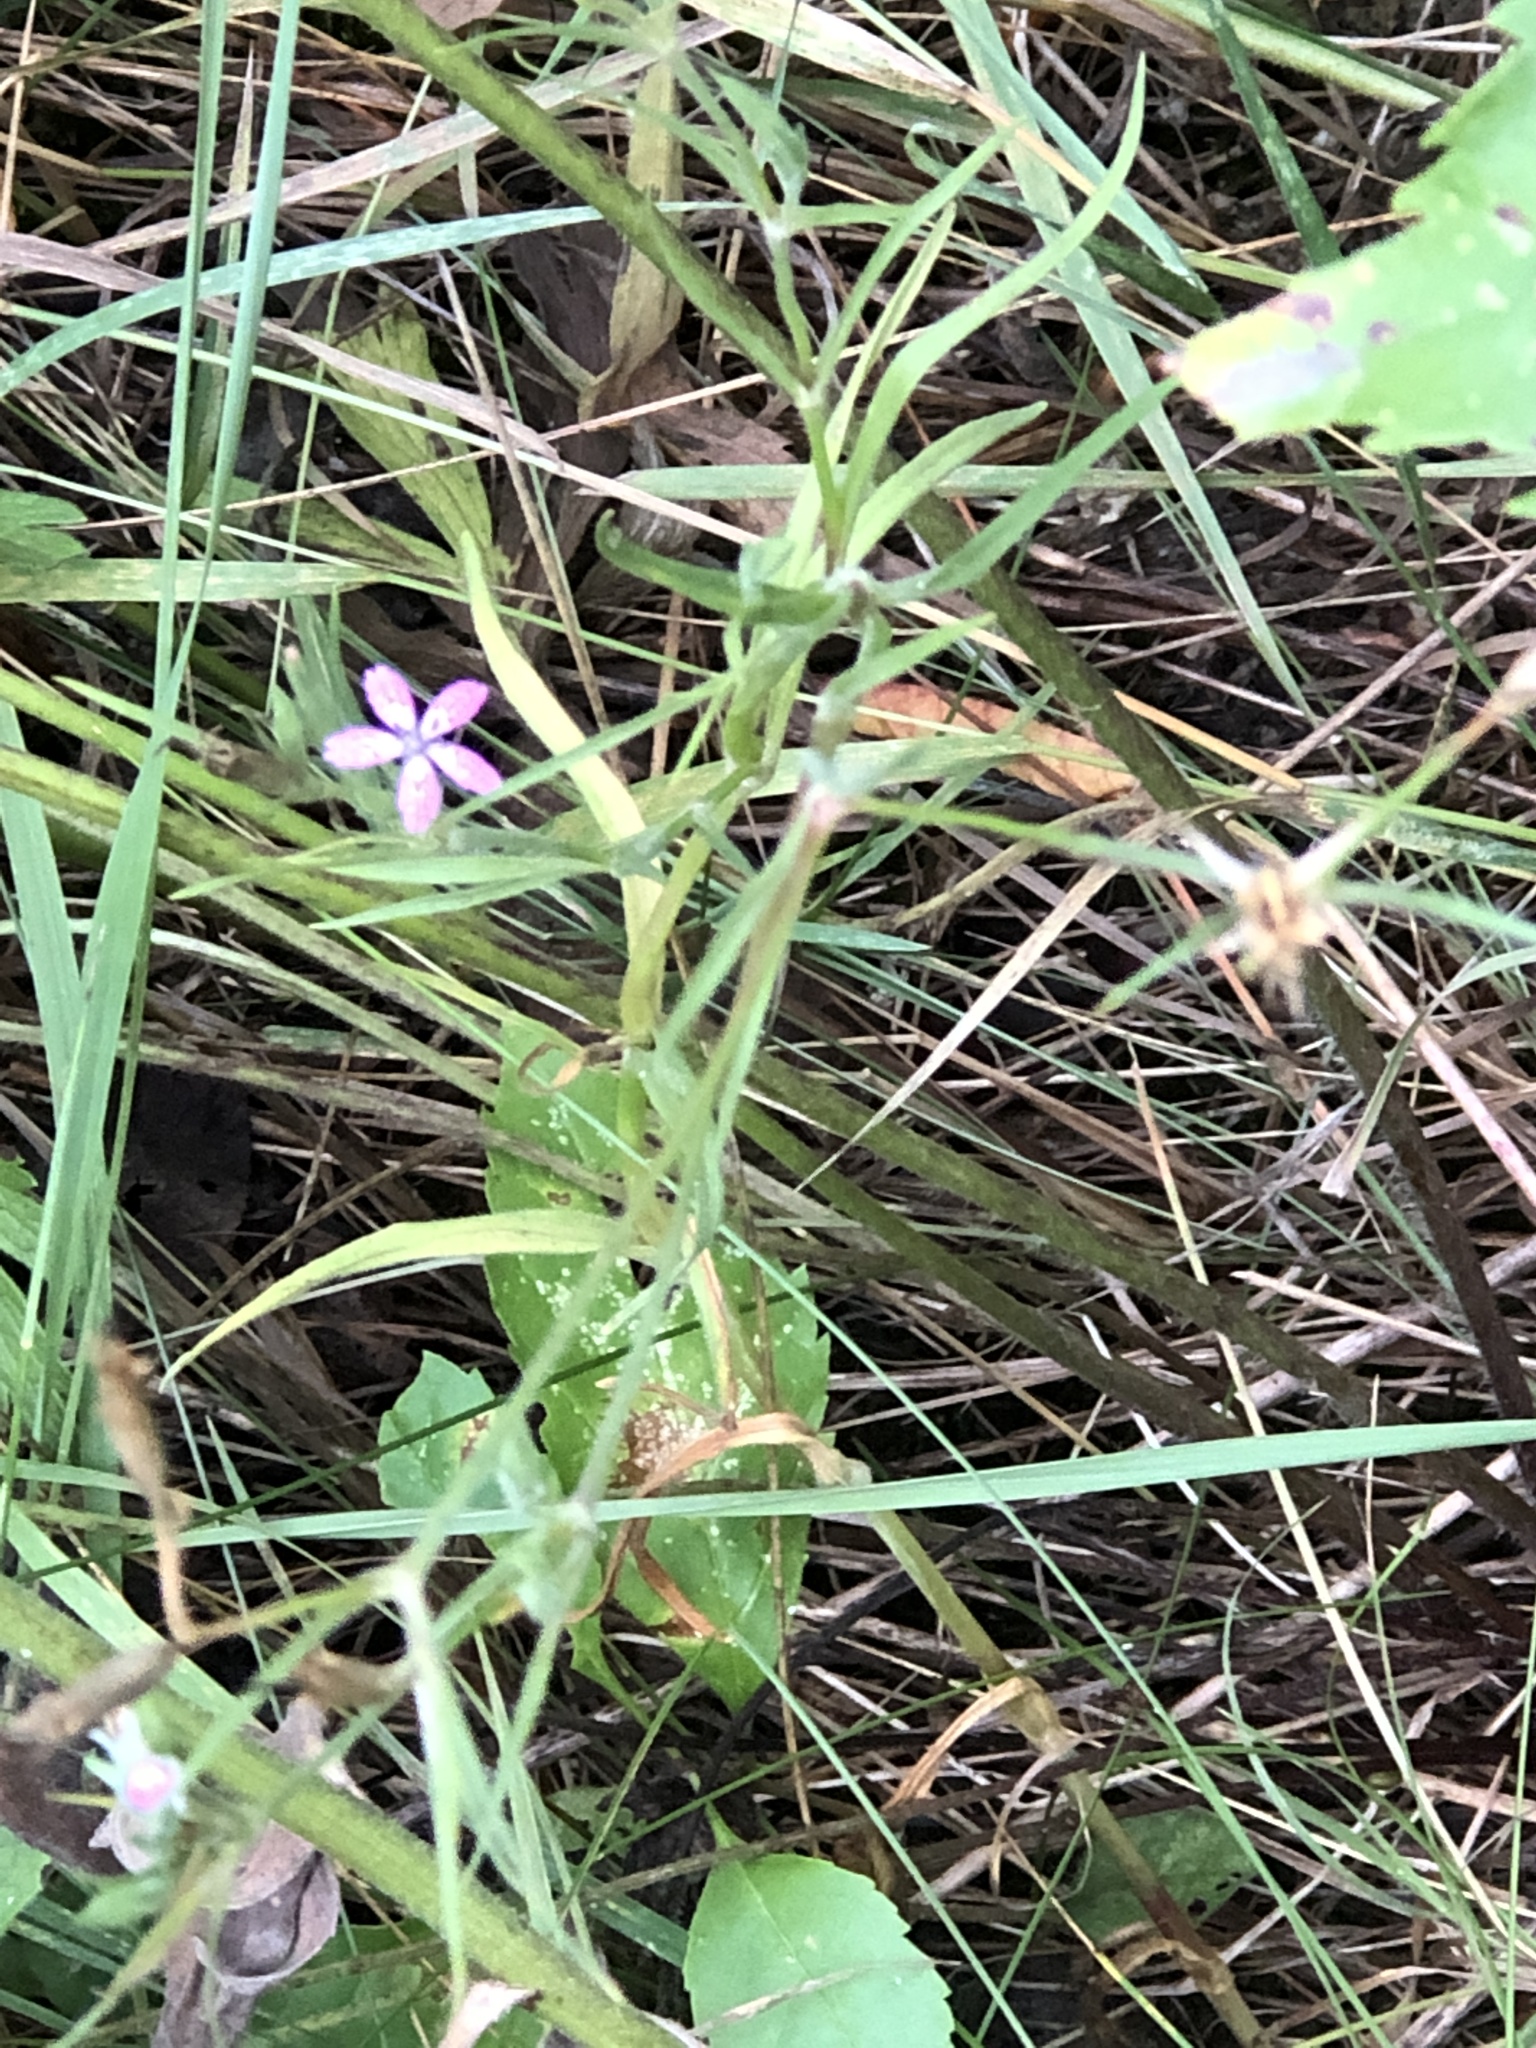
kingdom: Plantae
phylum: Tracheophyta
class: Magnoliopsida
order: Caryophyllales
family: Caryophyllaceae
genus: Dianthus
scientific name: Dianthus armeria
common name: Deptford pink
